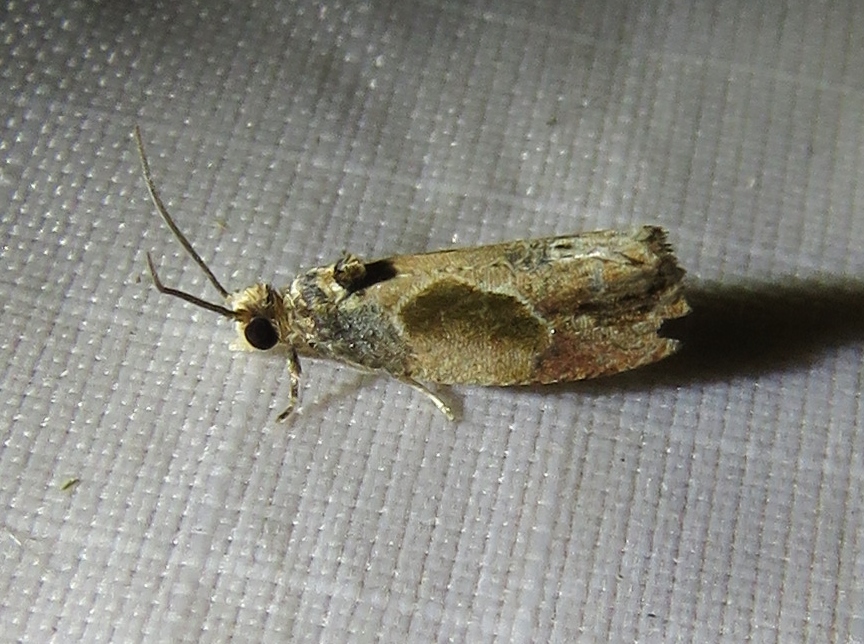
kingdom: Animalia
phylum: Arthropoda
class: Insecta
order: Lepidoptera
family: Tortricidae
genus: Eumarozia
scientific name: Eumarozia malachitana
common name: Sculptured moth
